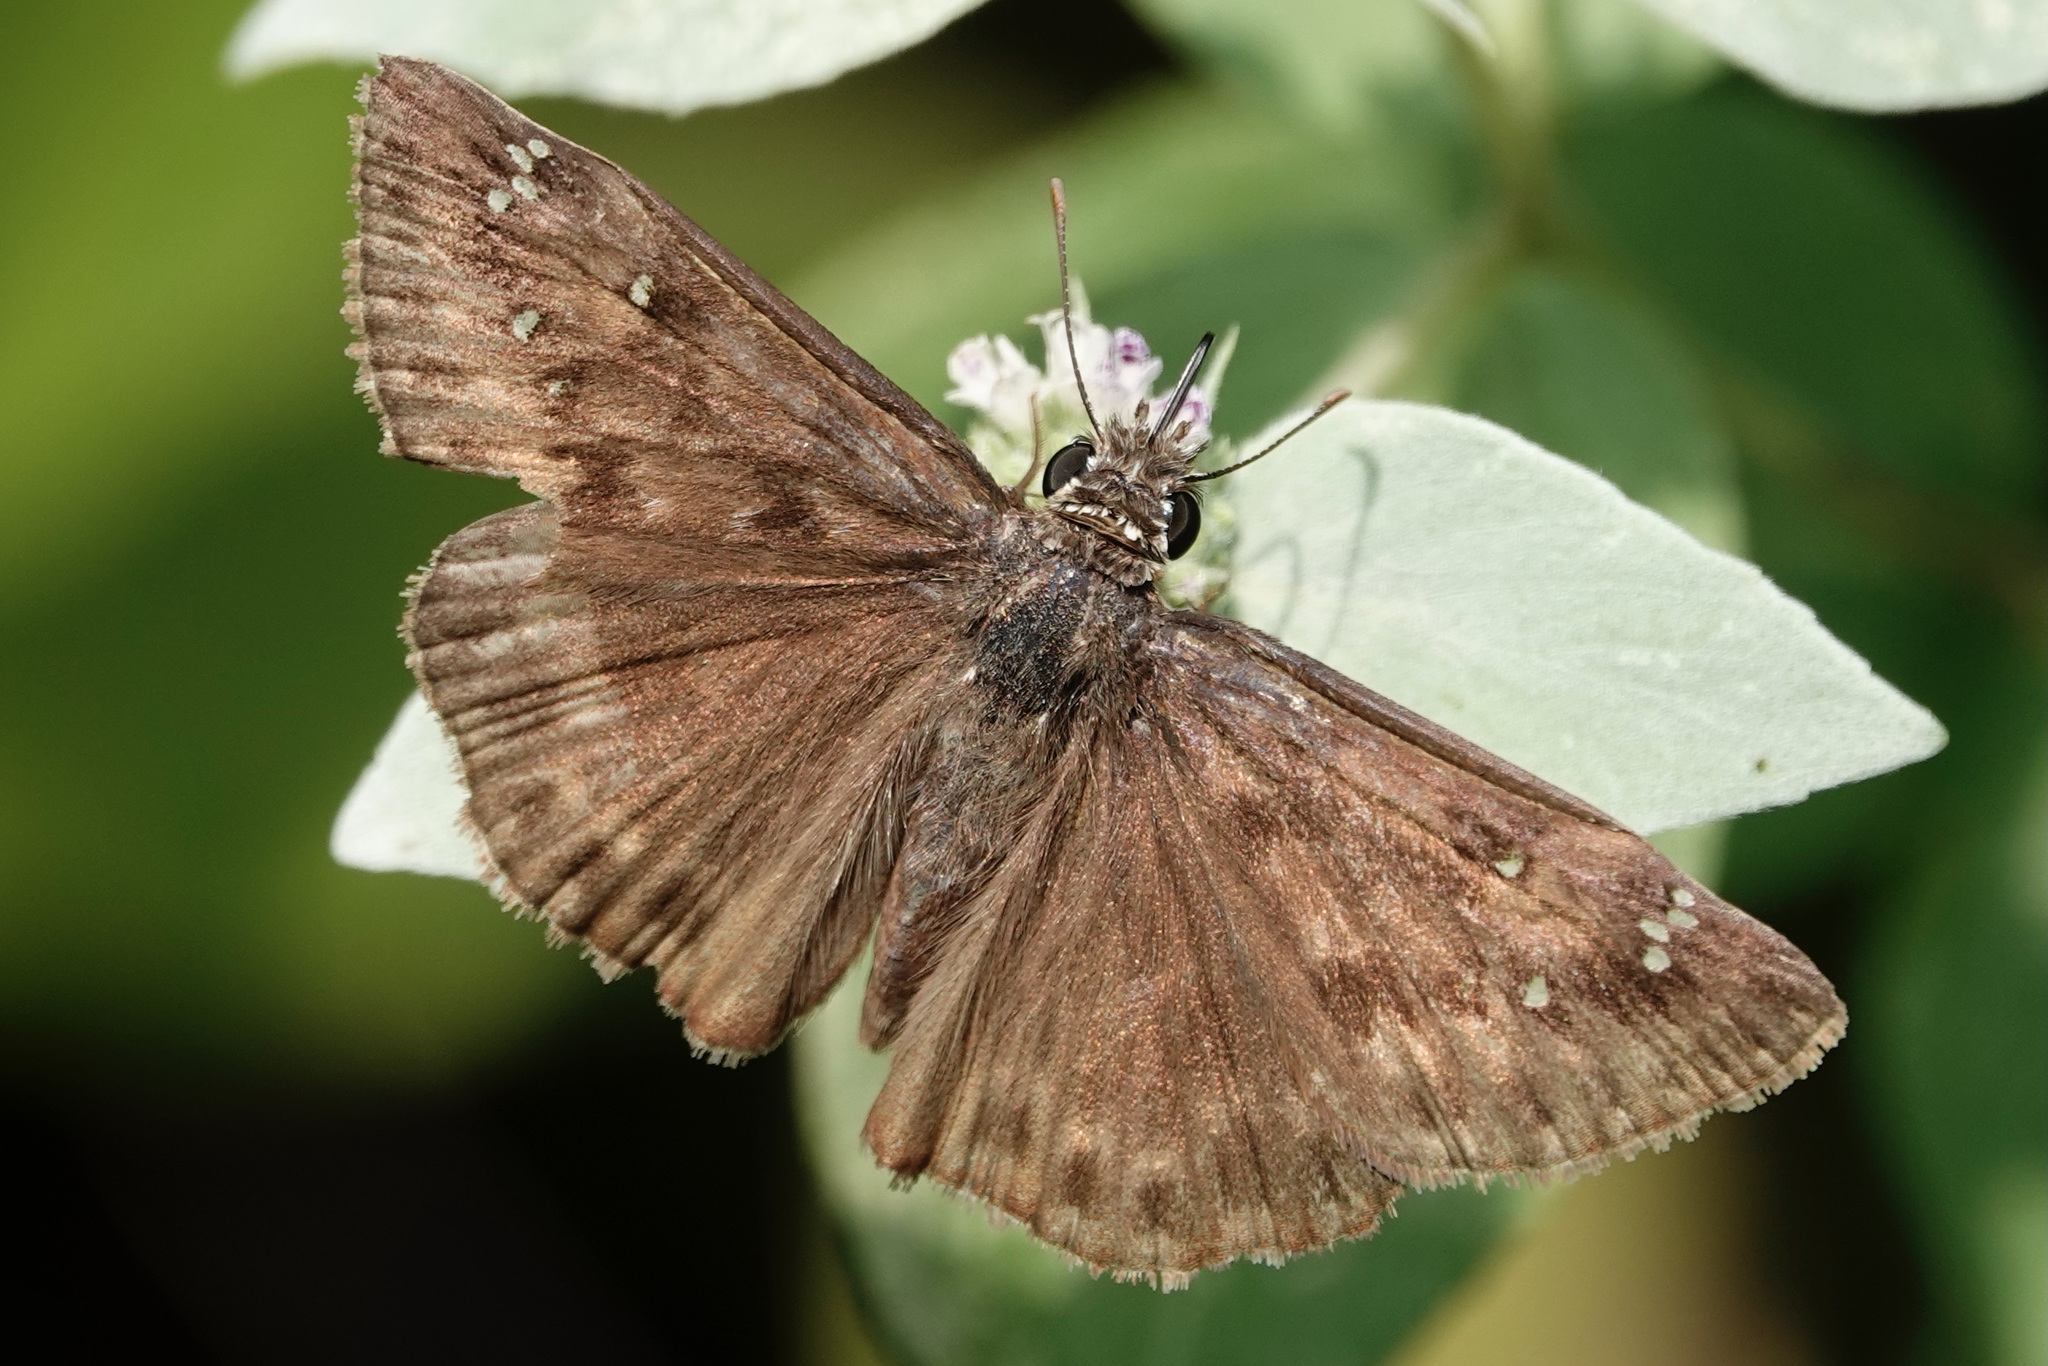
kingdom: Animalia
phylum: Arthropoda
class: Insecta
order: Lepidoptera
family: Hesperiidae
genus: Erynnis
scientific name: Erynnis horatius
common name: Horace's duskywing
